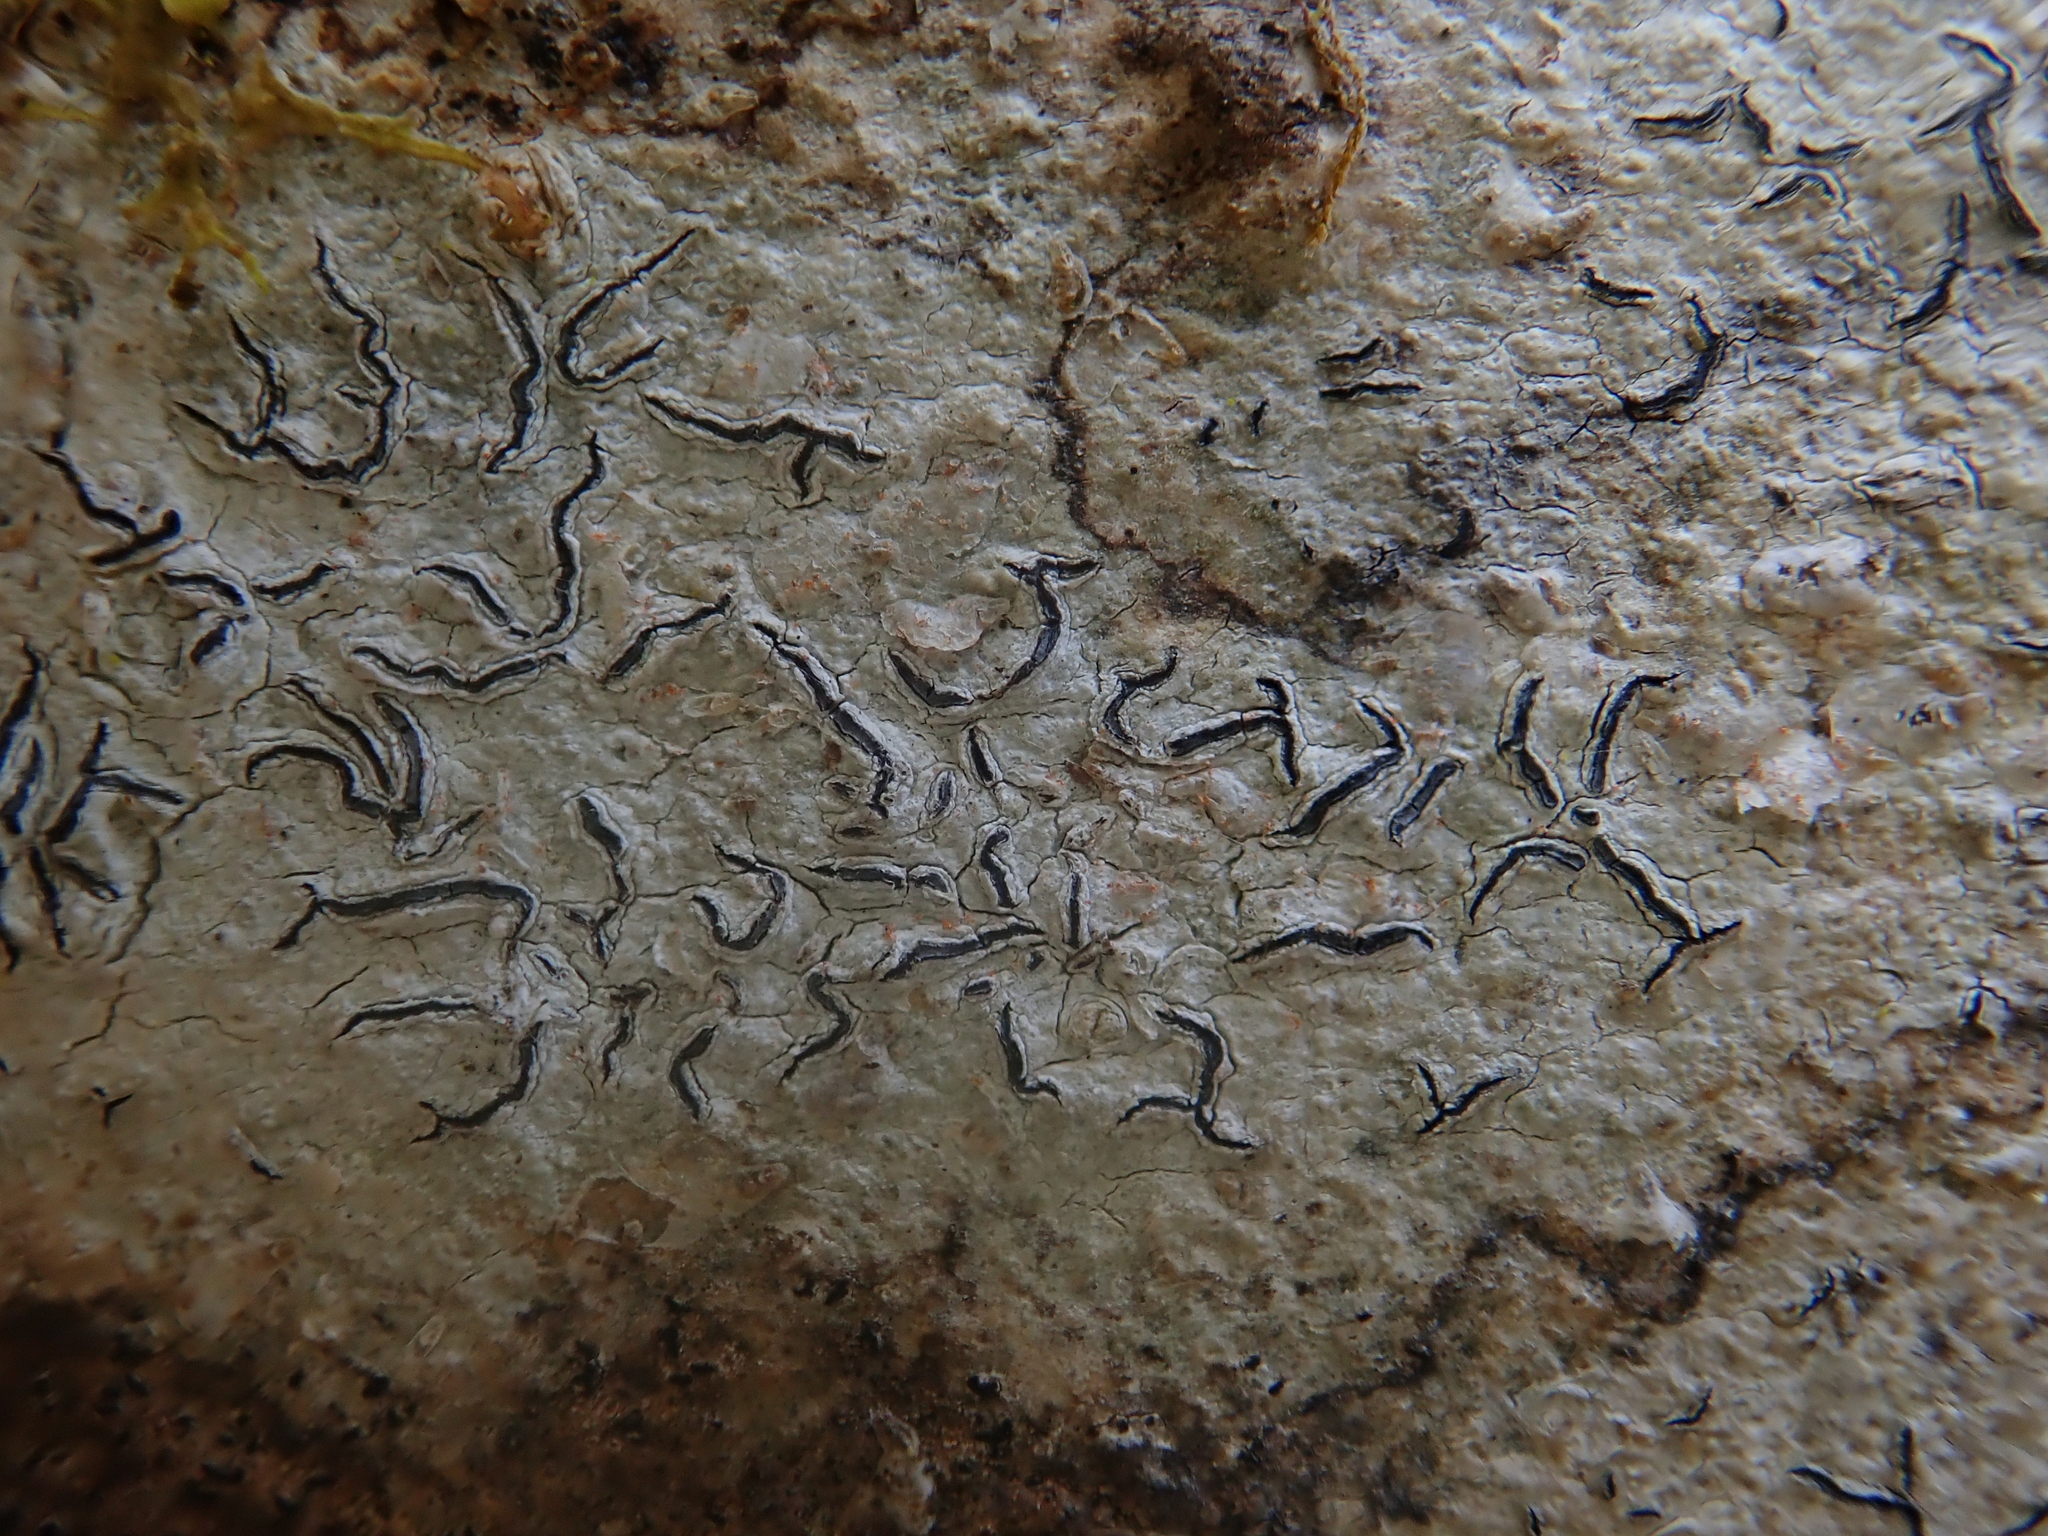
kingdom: Fungi
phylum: Ascomycota
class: Lecanoromycetes
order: Ostropales
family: Graphidaceae
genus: Graphis
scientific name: Graphis scripta
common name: Script lichen
